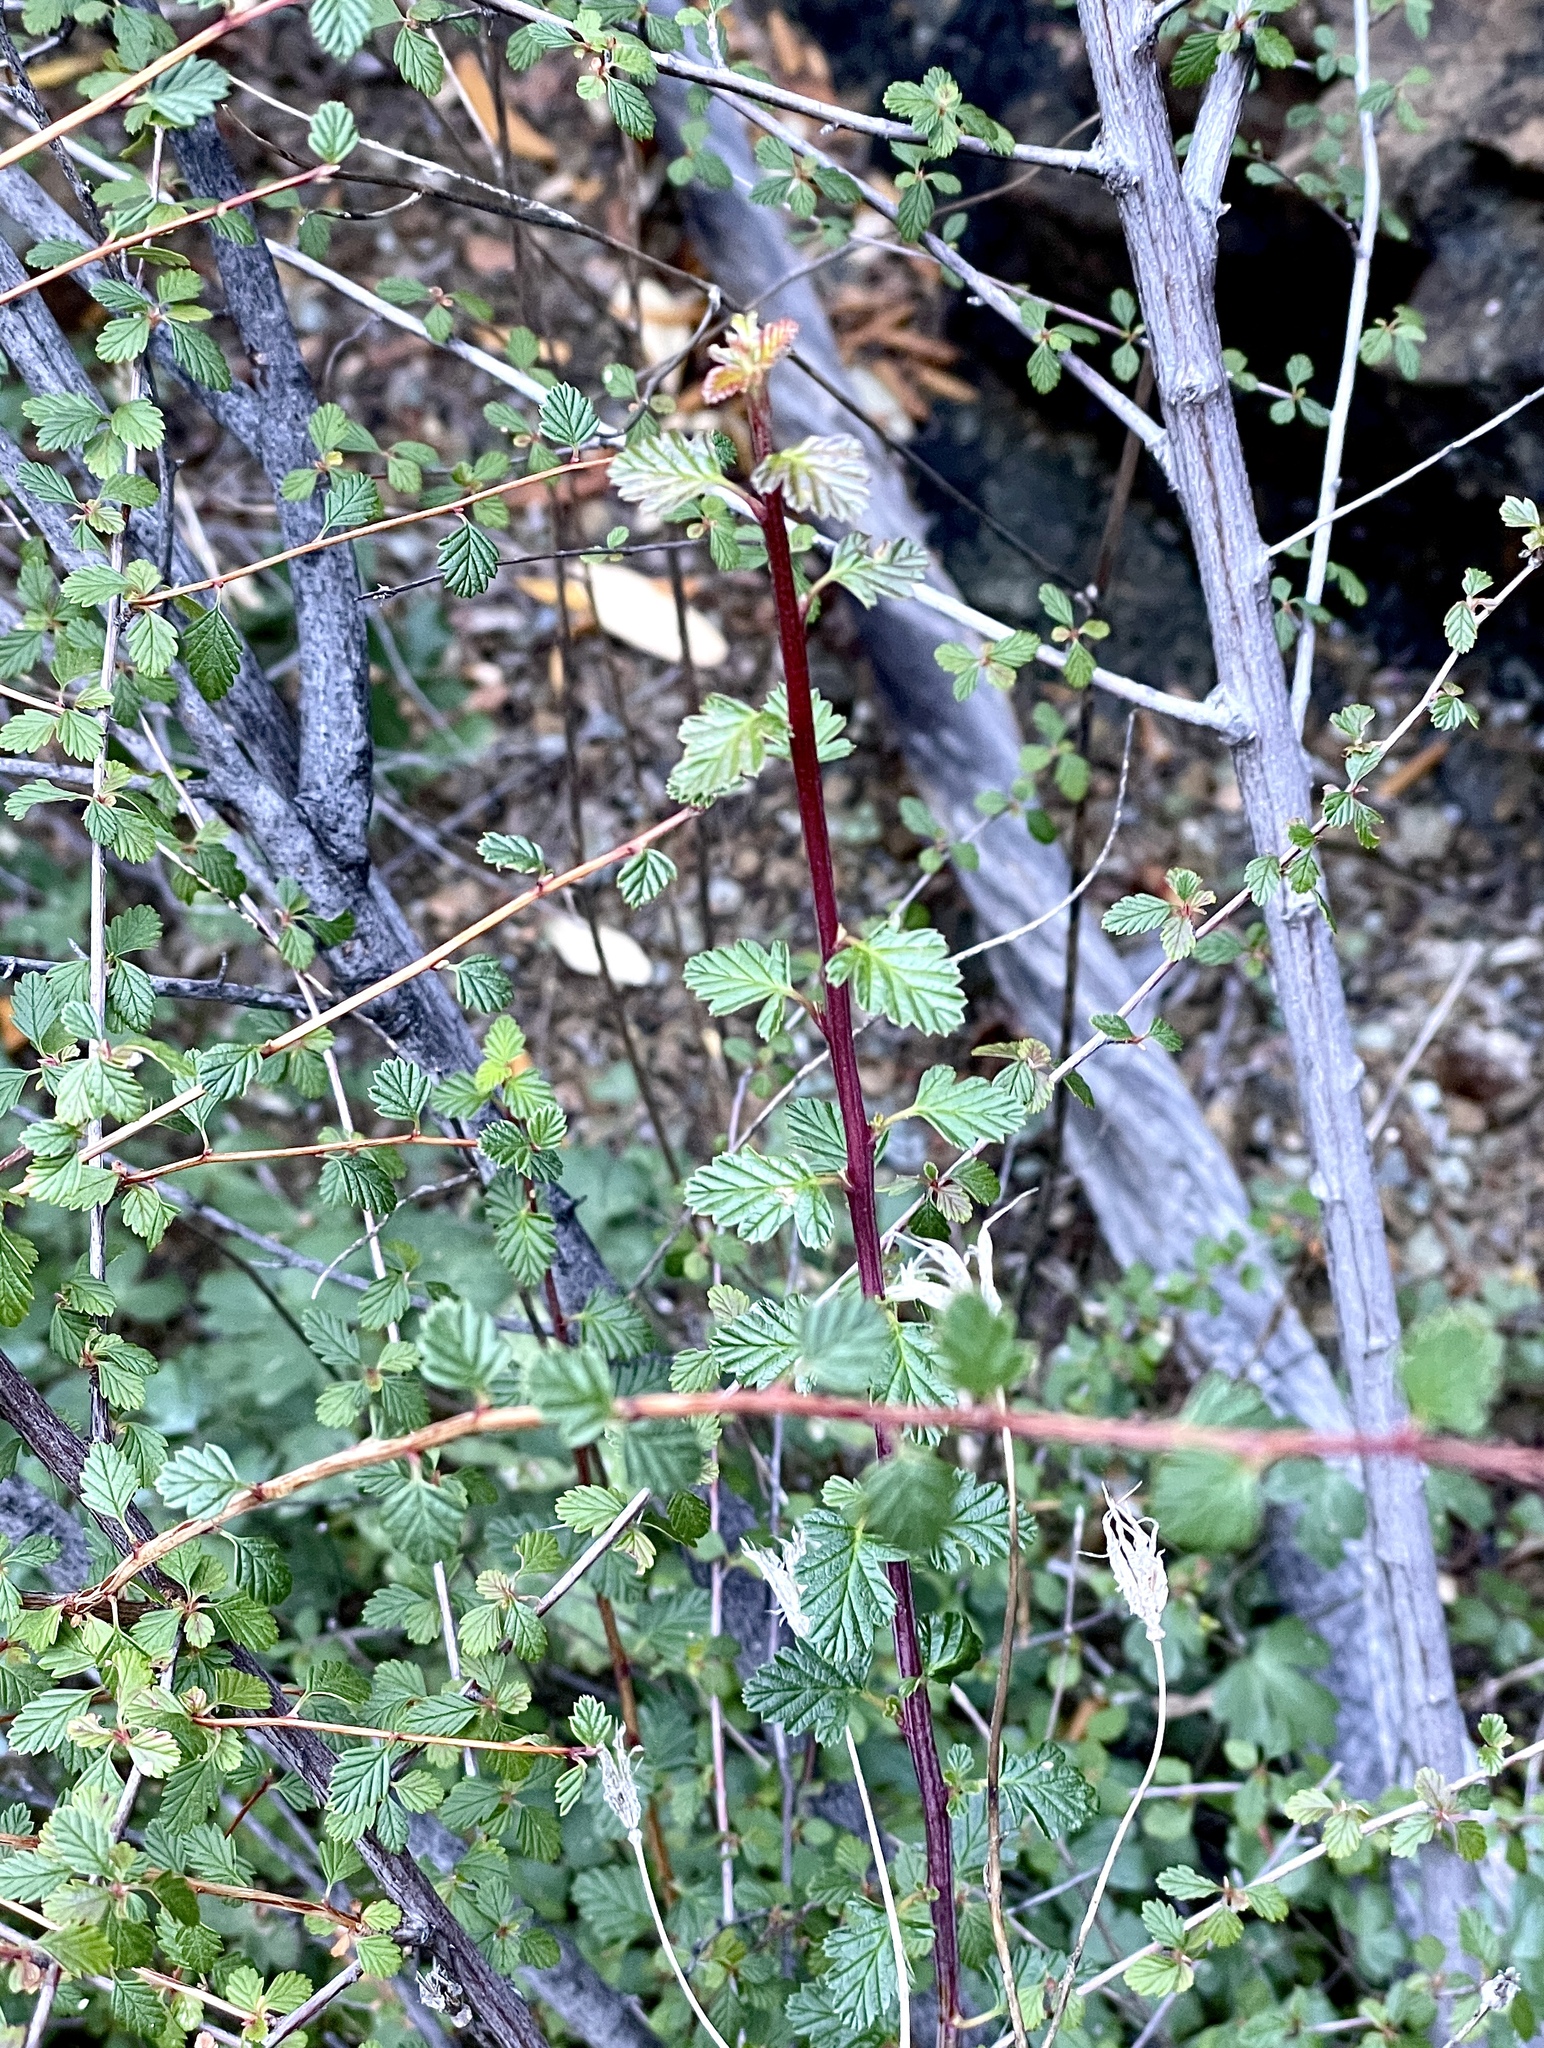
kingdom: Plantae
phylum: Tracheophyta
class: Magnoliopsida
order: Rosales
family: Rosaceae
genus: Holodiscus
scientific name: Holodiscus discolor
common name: Oceanspray
